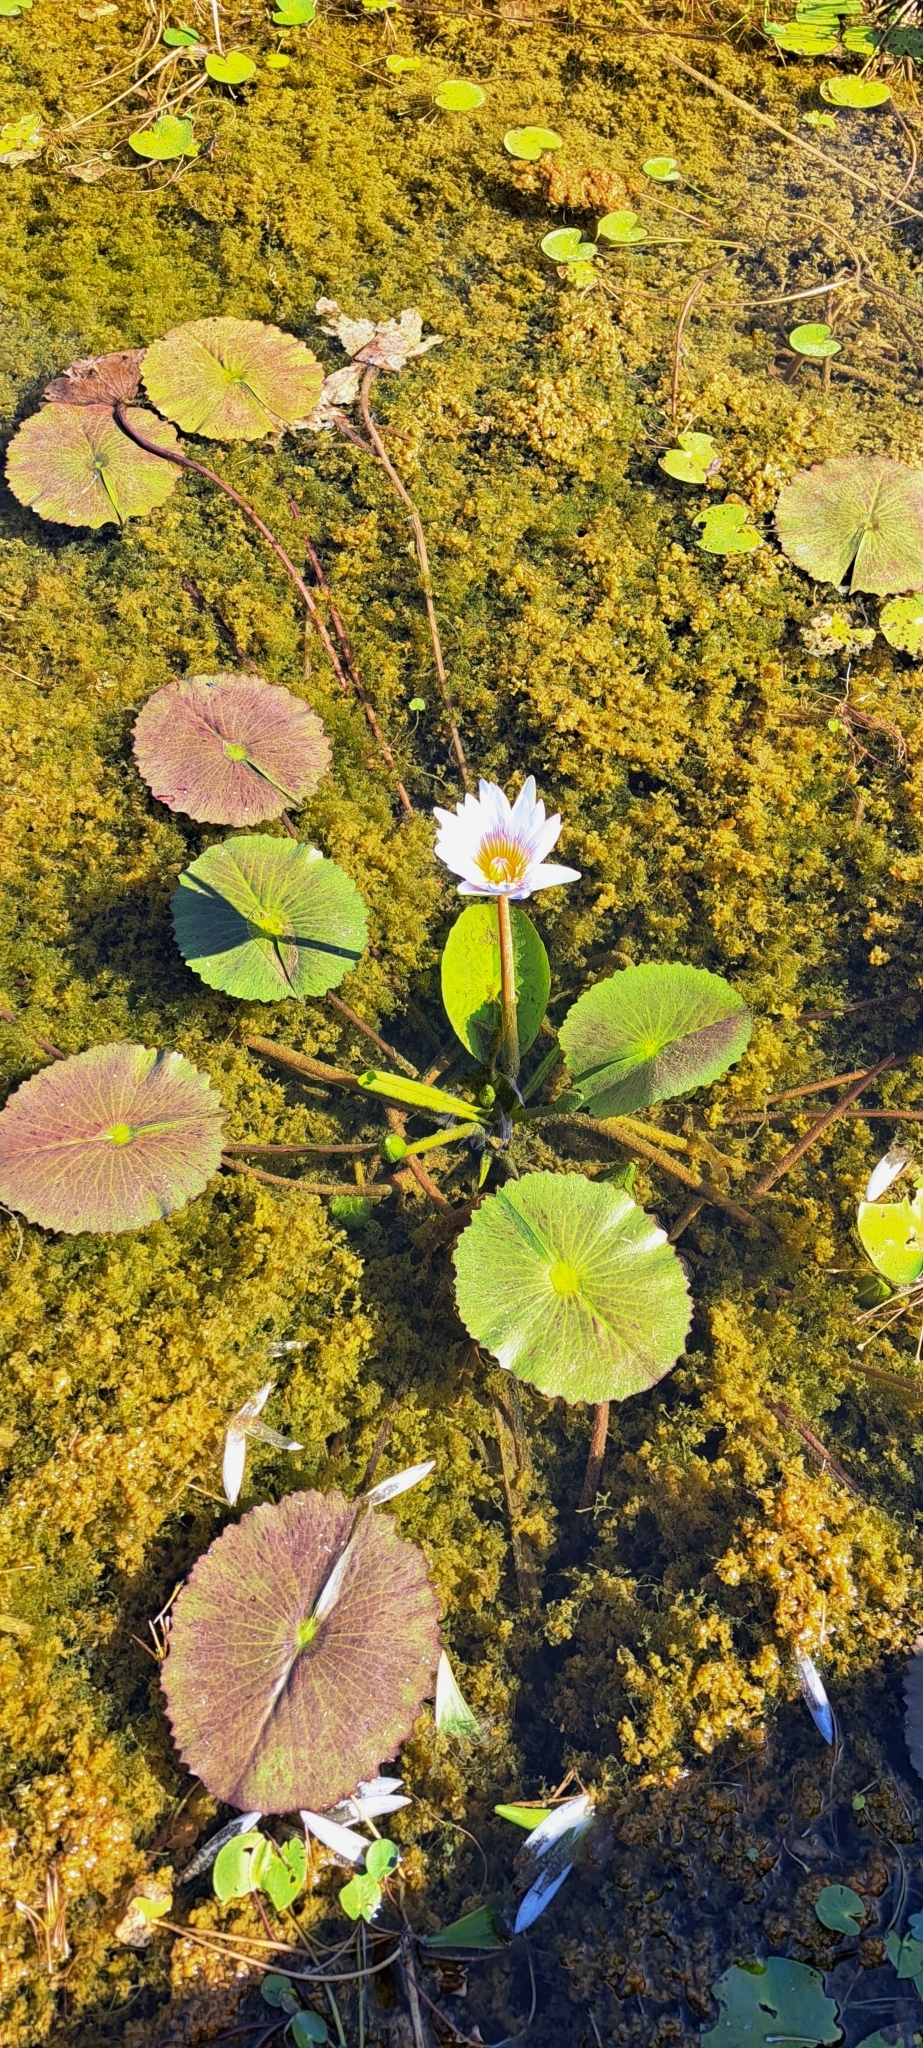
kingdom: Plantae
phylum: Tracheophyta
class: Magnoliopsida
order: Nymphaeales
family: Nymphaeaceae
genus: Nymphaea
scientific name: Nymphaea nouchali
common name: Blue lotus
